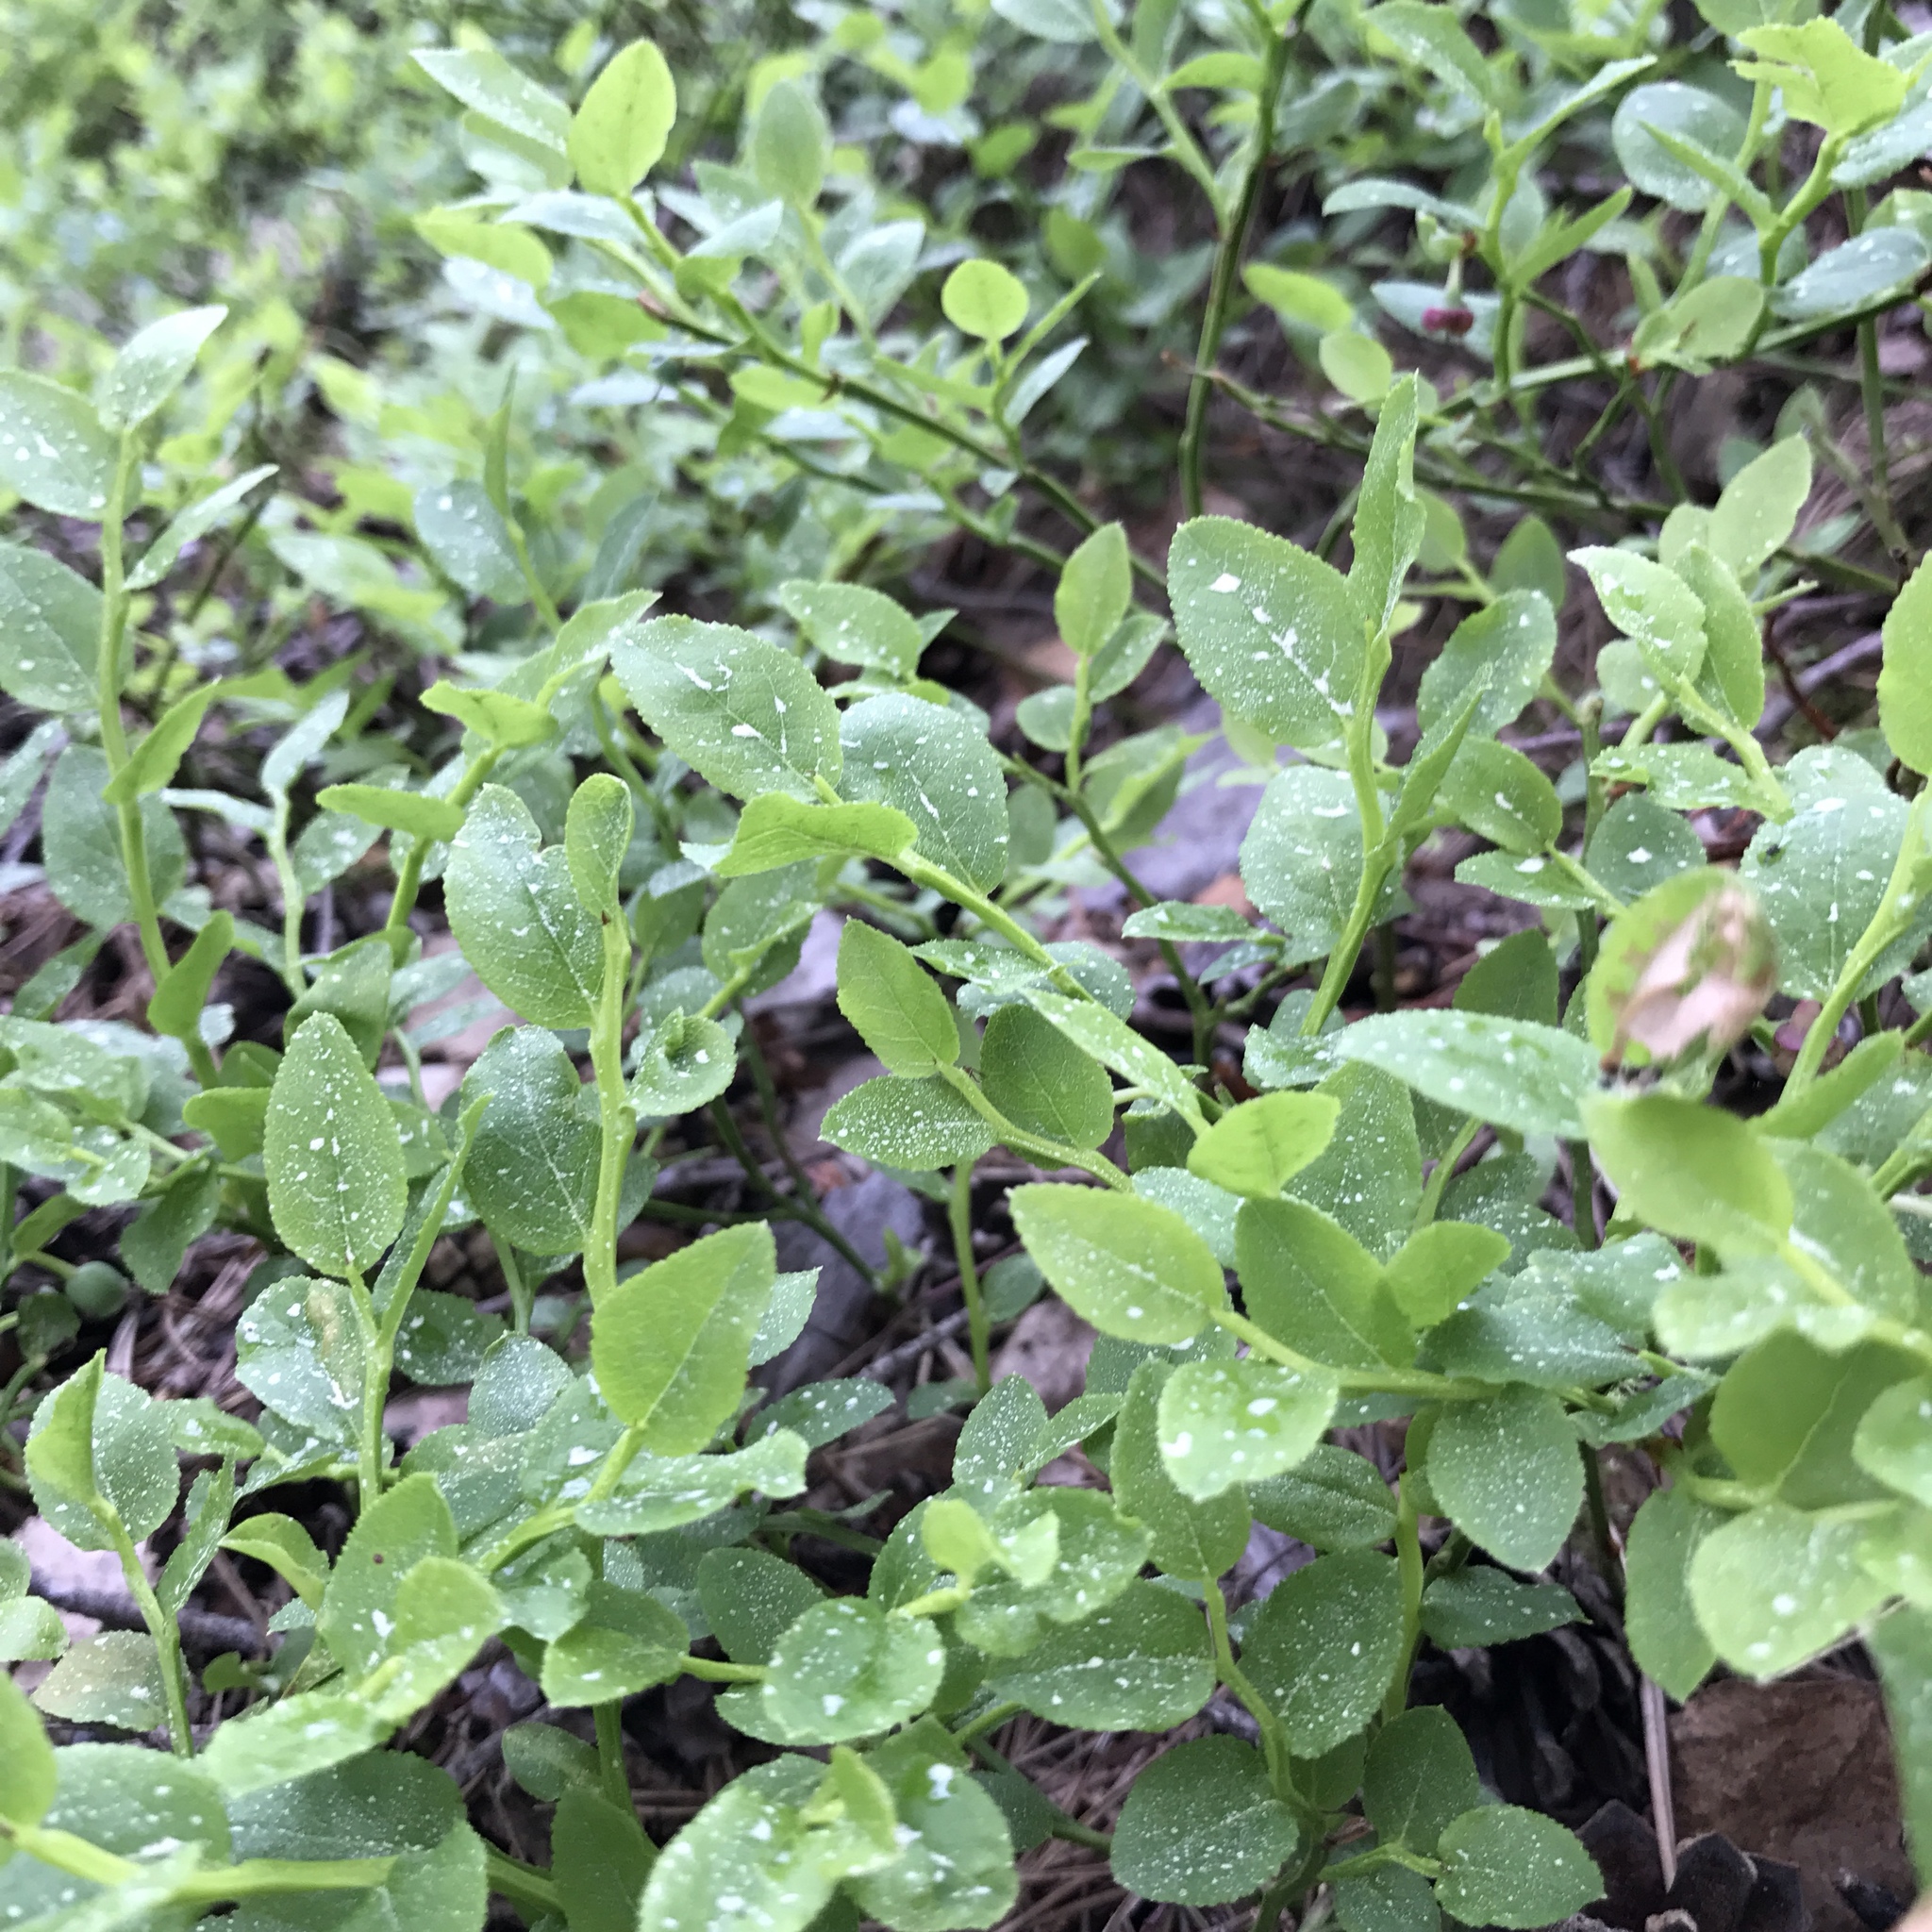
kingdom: Plantae
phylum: Tracheophyta
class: Magnoliopsida
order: Ericales
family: Ericaceae
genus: Vaccinium
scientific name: Vaccinium myrtillus
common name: Bilberry
